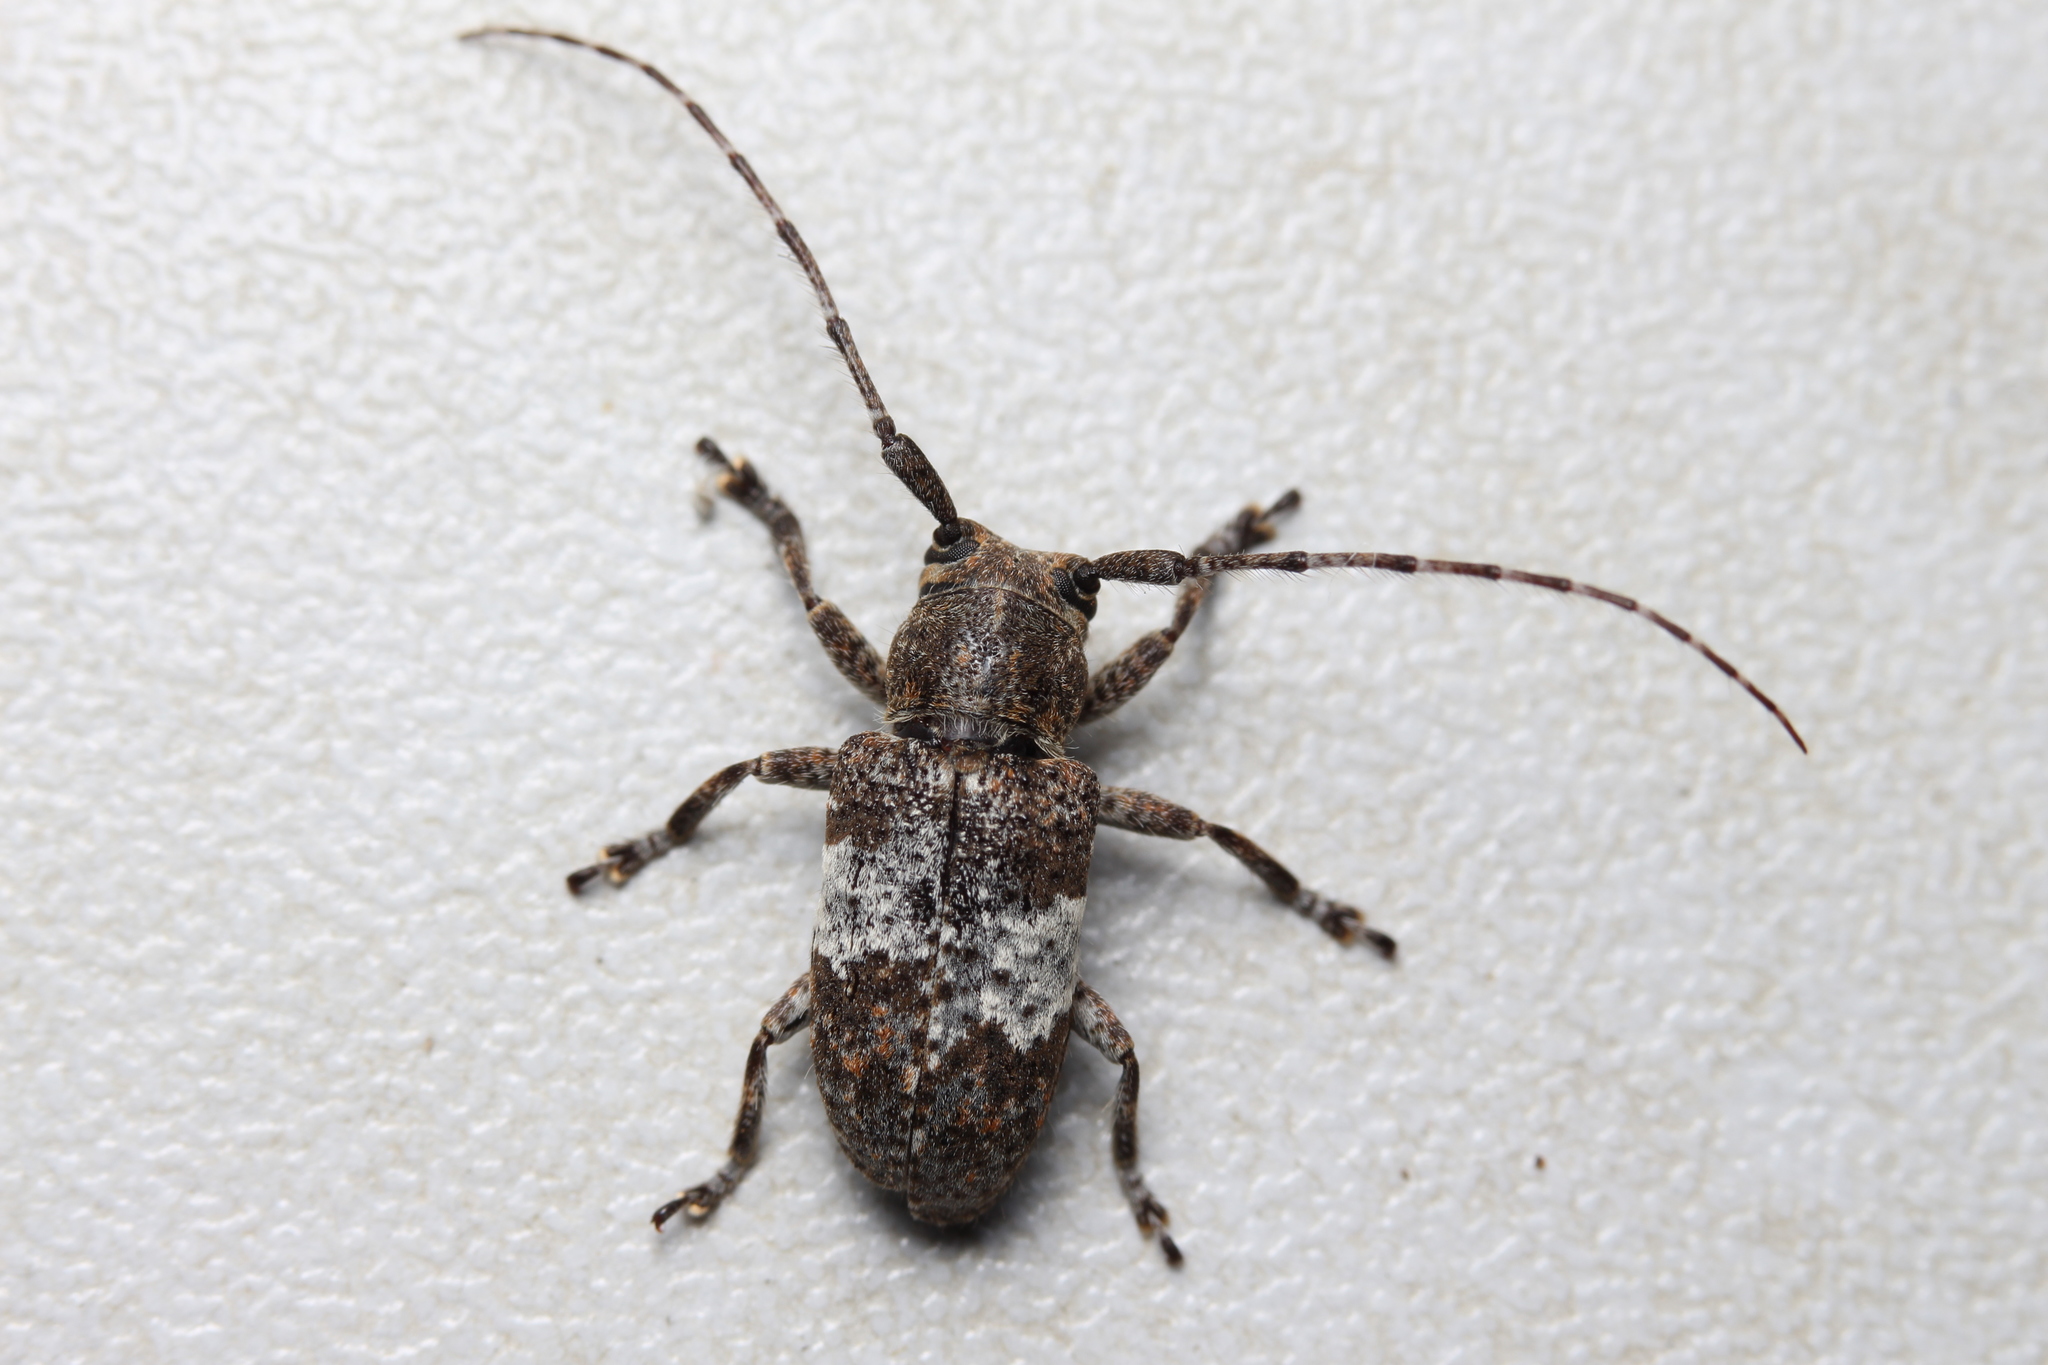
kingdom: Animalia
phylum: Arthropoda
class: Insecta
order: Coleoptera
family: Cerambycidae
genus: Desisa
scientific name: Desisa subfasciata
